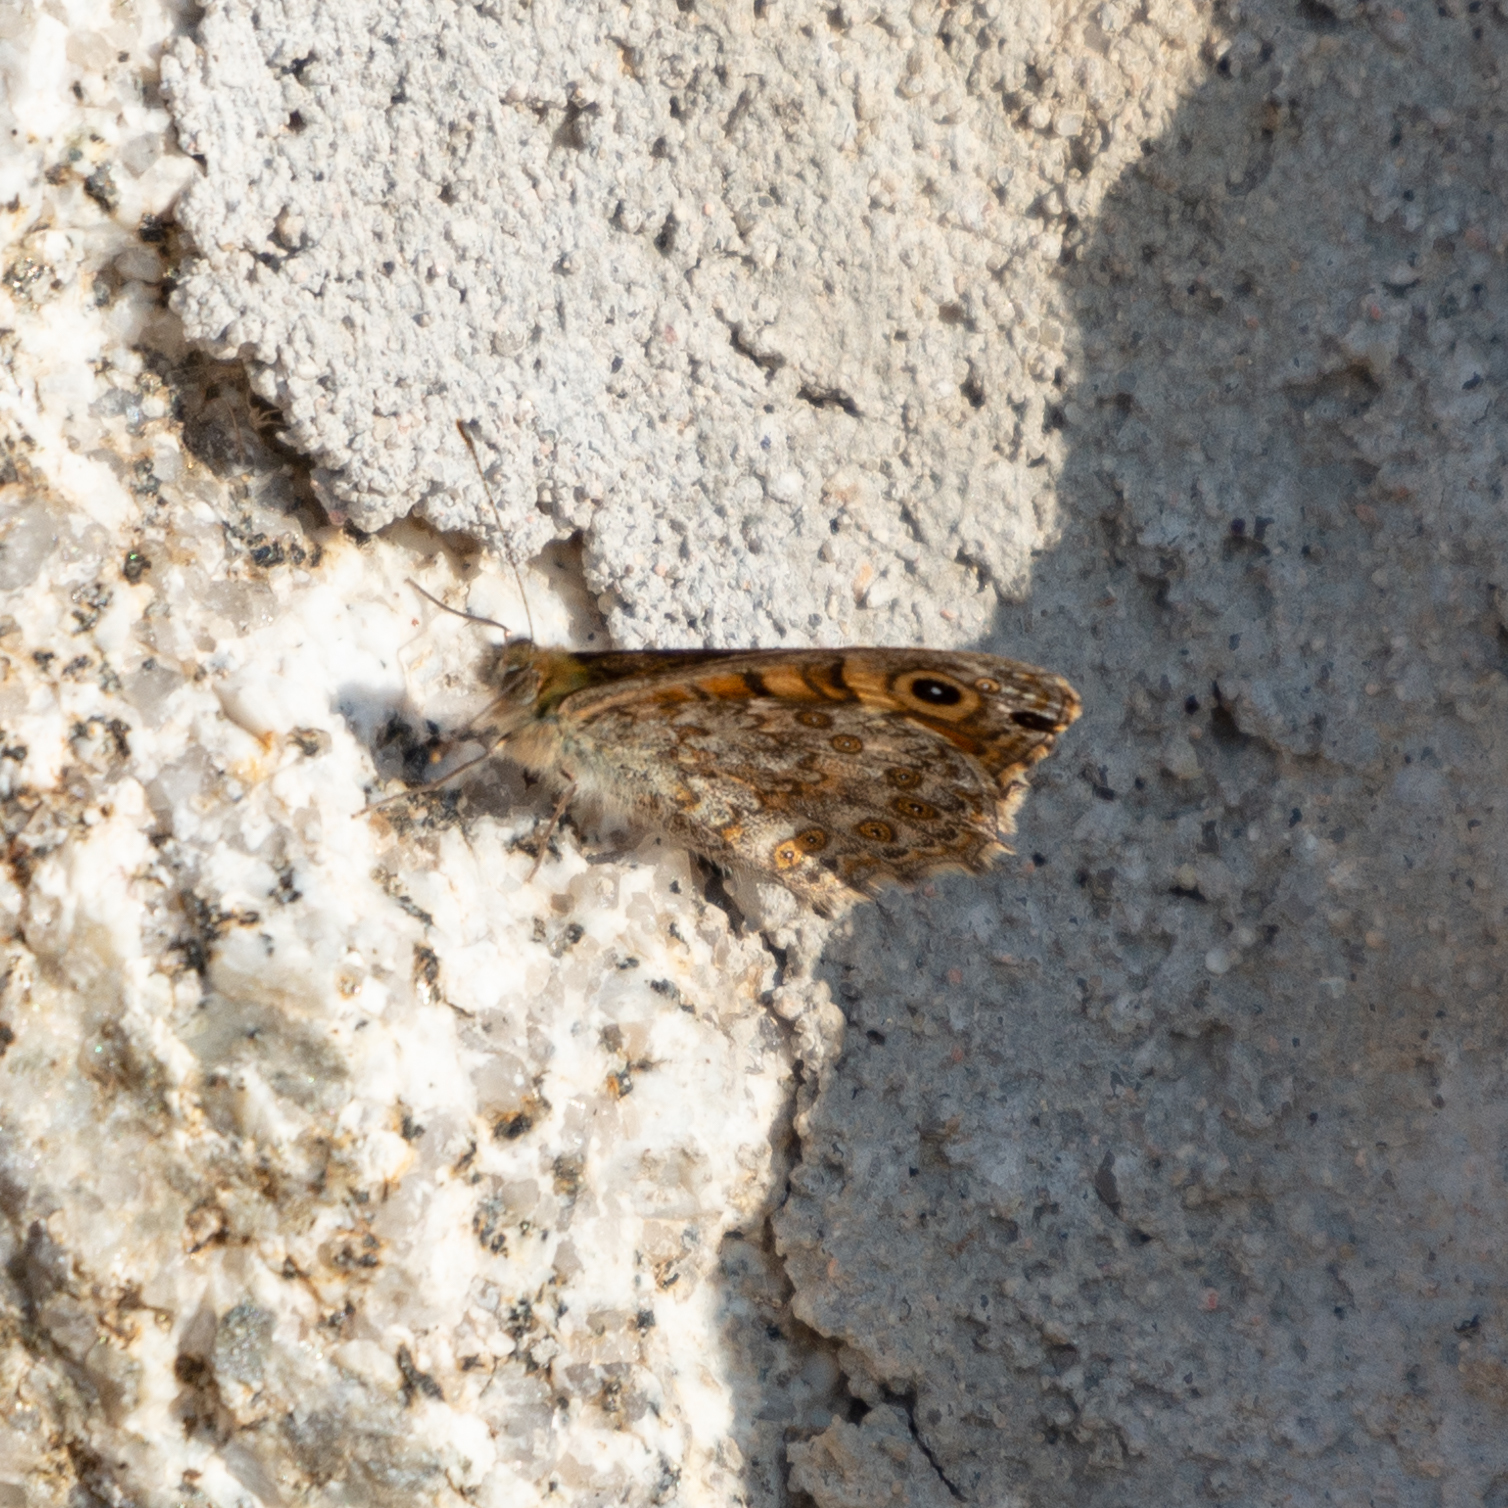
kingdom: Animalia
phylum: Arthropoda
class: Insecta
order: Lepidoptera
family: Nymphalidae
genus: Pararge
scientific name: Pararge Lasiommata megera
